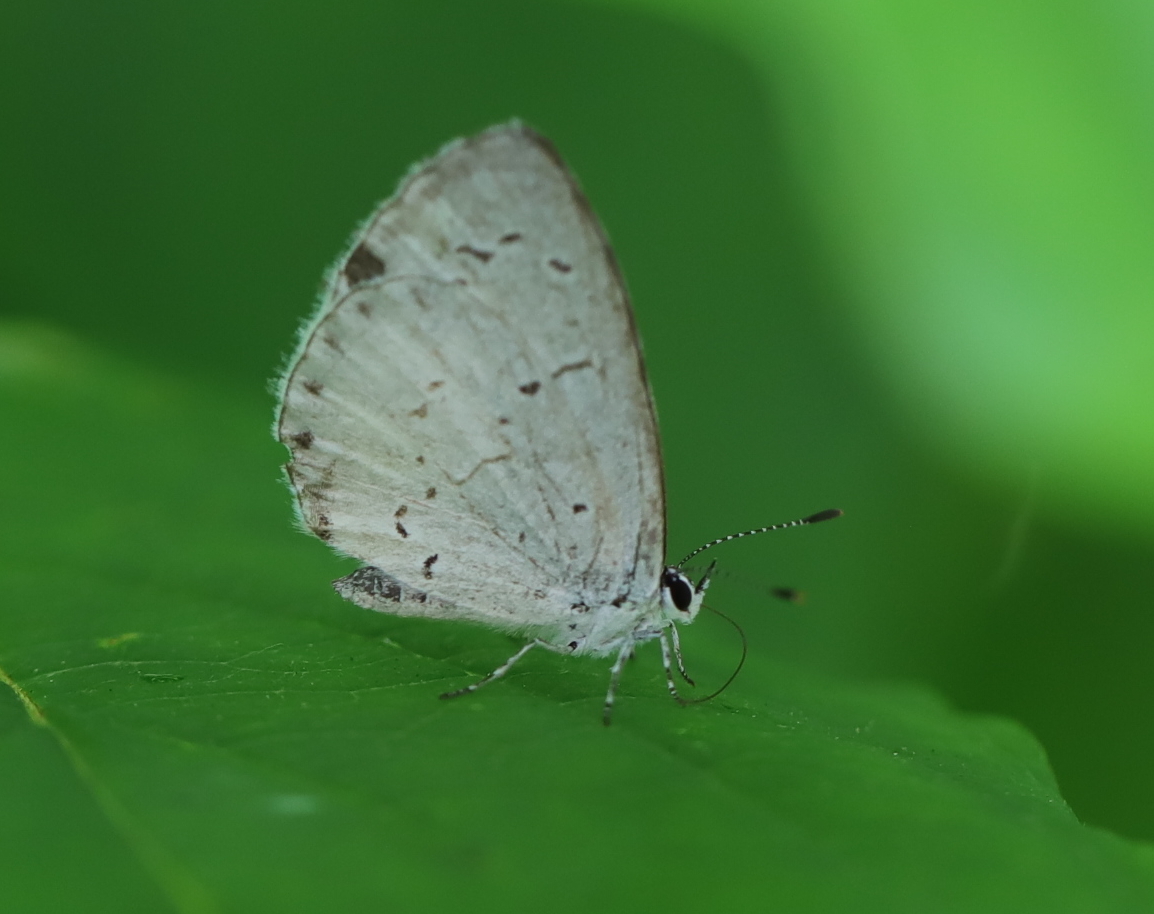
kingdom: Animalia
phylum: Arthropoda
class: Insecta
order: Lepidoptera
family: Lycaenidae
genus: Cyaniris
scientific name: Cyaniris neglecta
